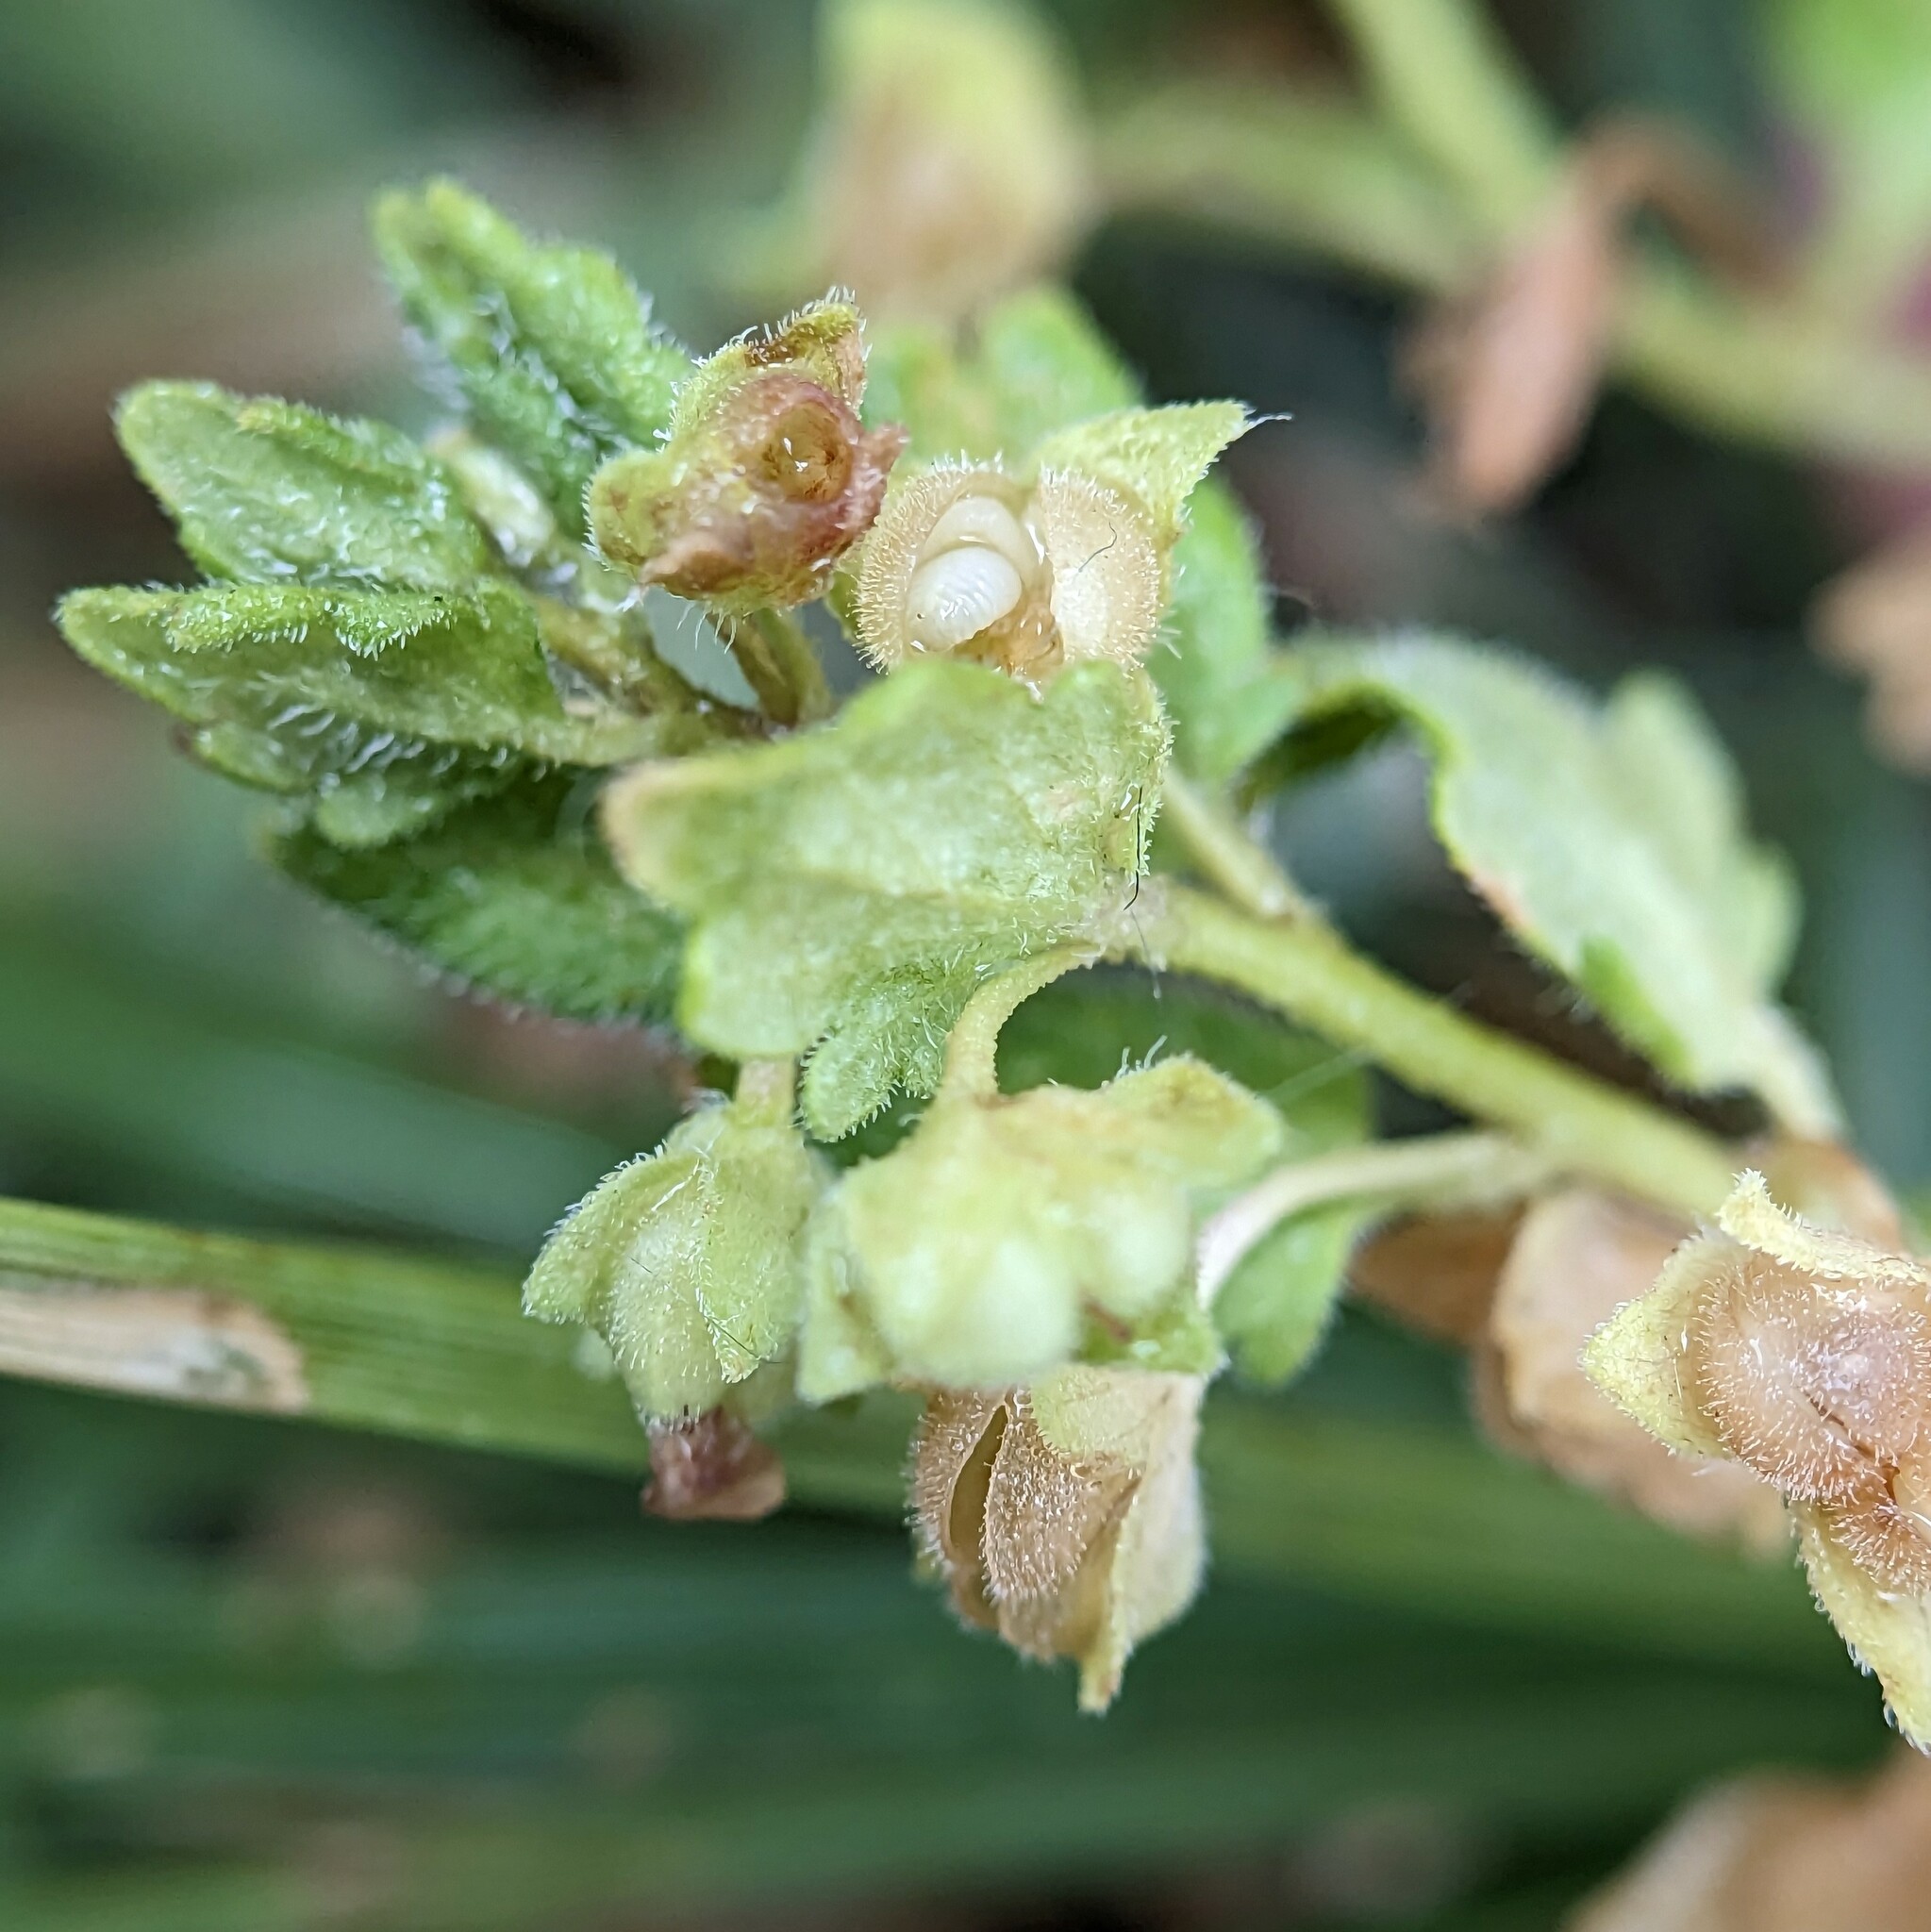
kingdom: Plantae
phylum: Tracheophyta
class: Magnoliopsida
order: Lamiales
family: Plantaginaceae
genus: Veronica
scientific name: Veronica polita
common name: Grey field-speedwell
